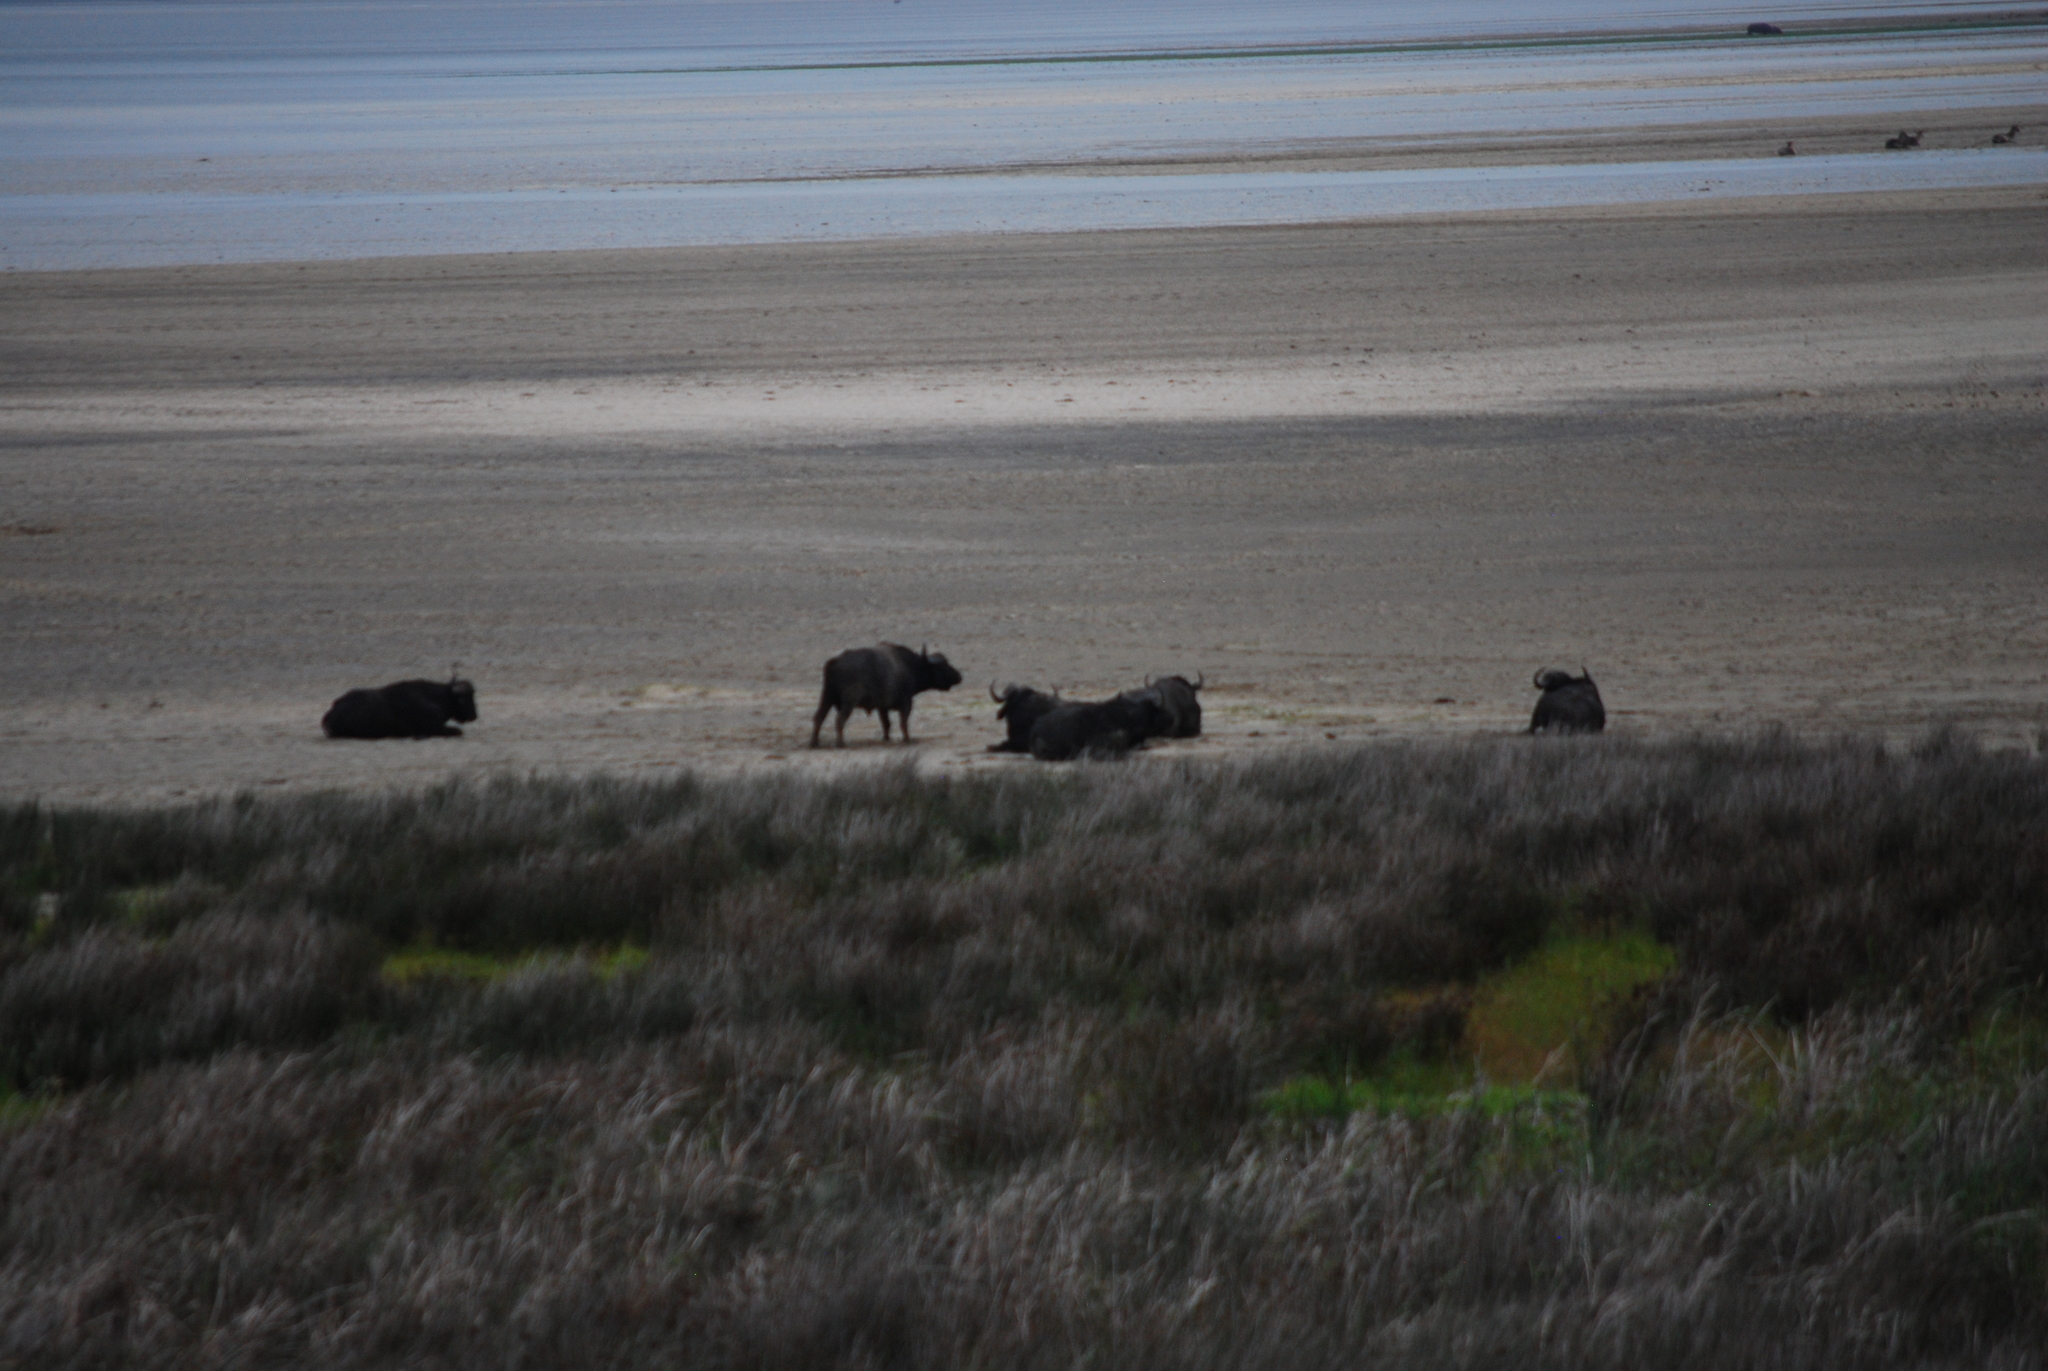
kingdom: Animalia
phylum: Chordata
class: Mammalia
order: Artiodactyla
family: Bovidae
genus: Syncerus
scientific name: Syncerus caffer
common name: African buffalo
